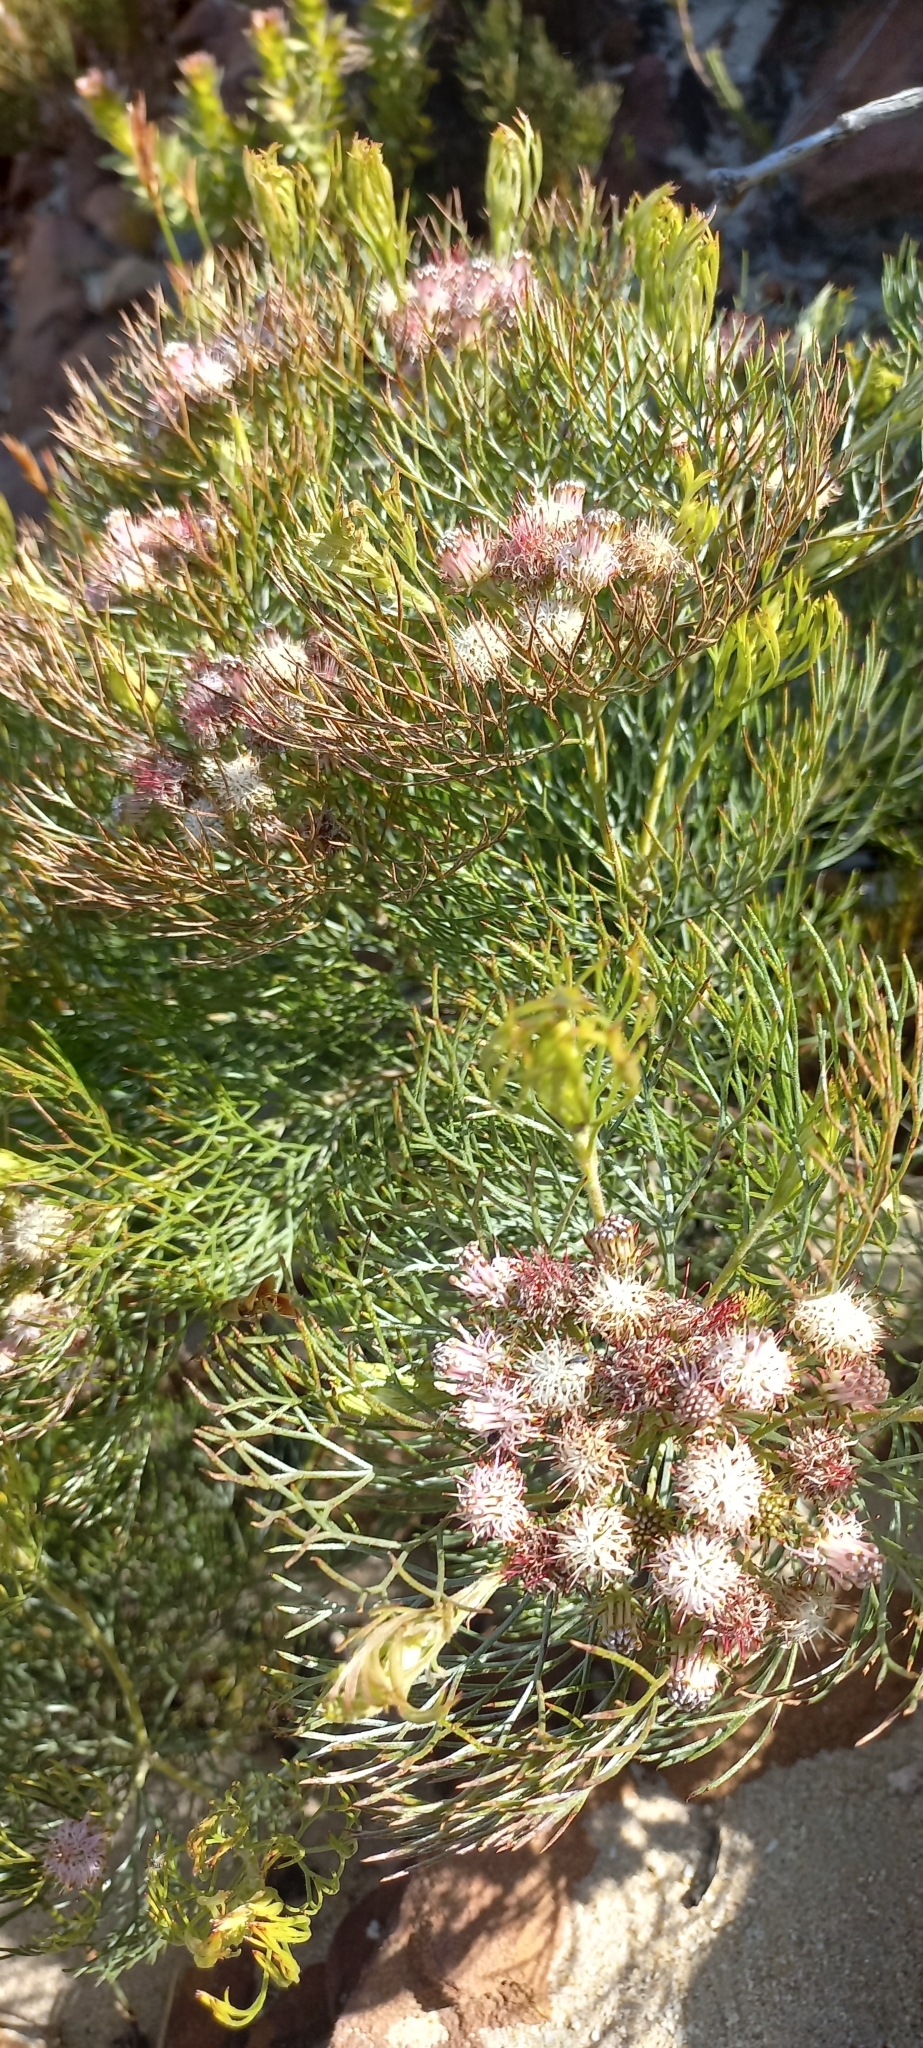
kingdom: Plantae
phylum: Tracheophyta
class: Magnoliopsida
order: Proteales
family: Proteaceae
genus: Serruria
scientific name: Serruria fasciflora
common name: Common pin spiderhead
